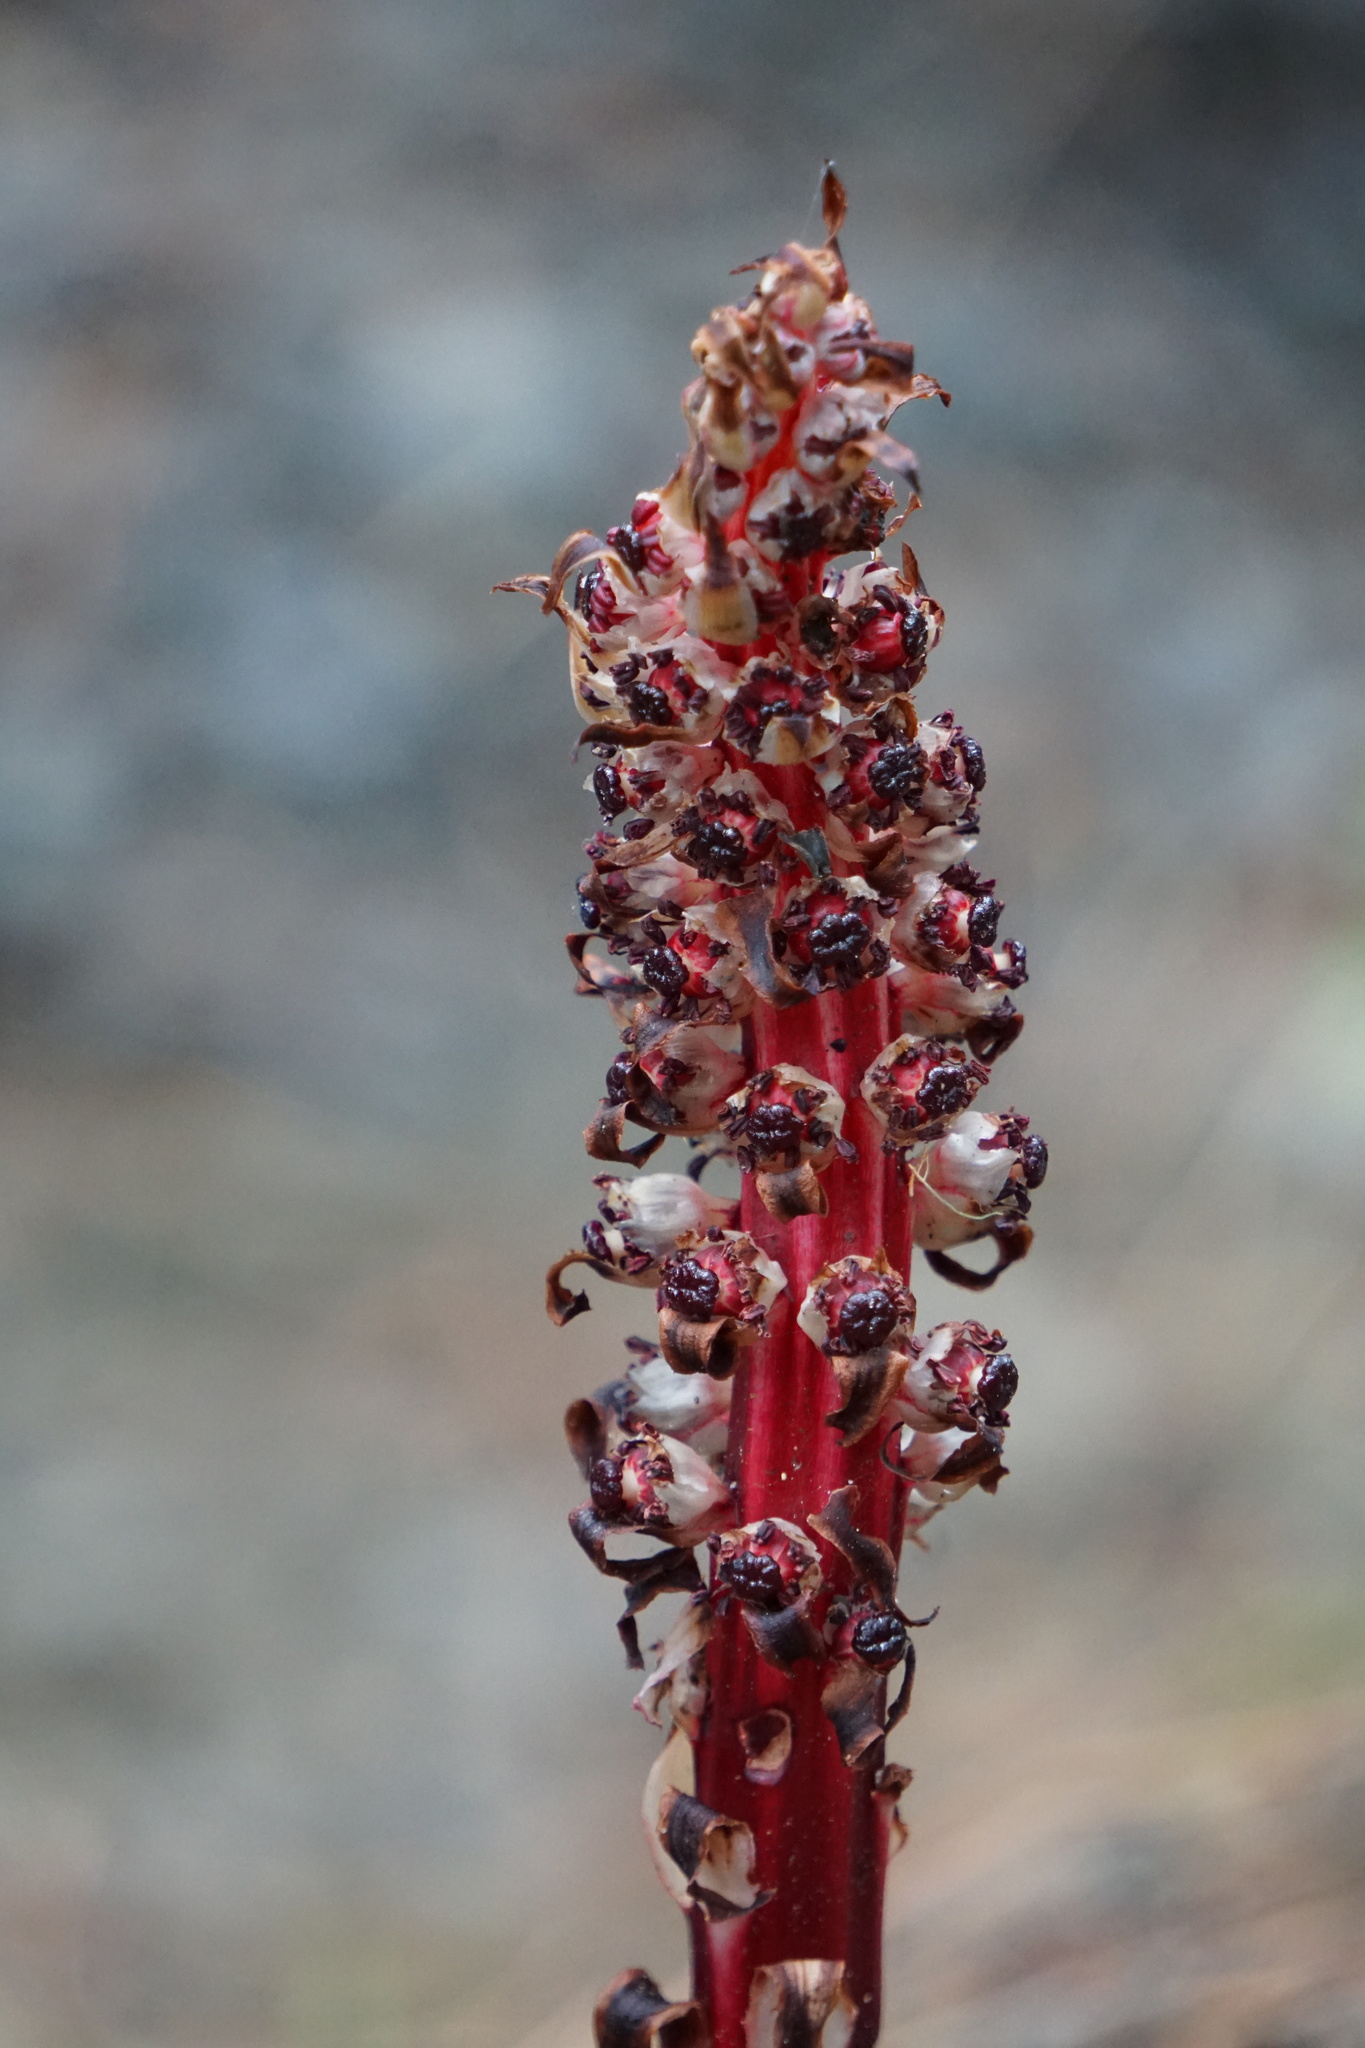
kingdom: Plantae
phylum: Tracheophyta
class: Magnoliopsida
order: Ericales
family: Ericaceae
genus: Allotropa
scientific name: Allotropa virgata
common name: Candy-striped allotropa
